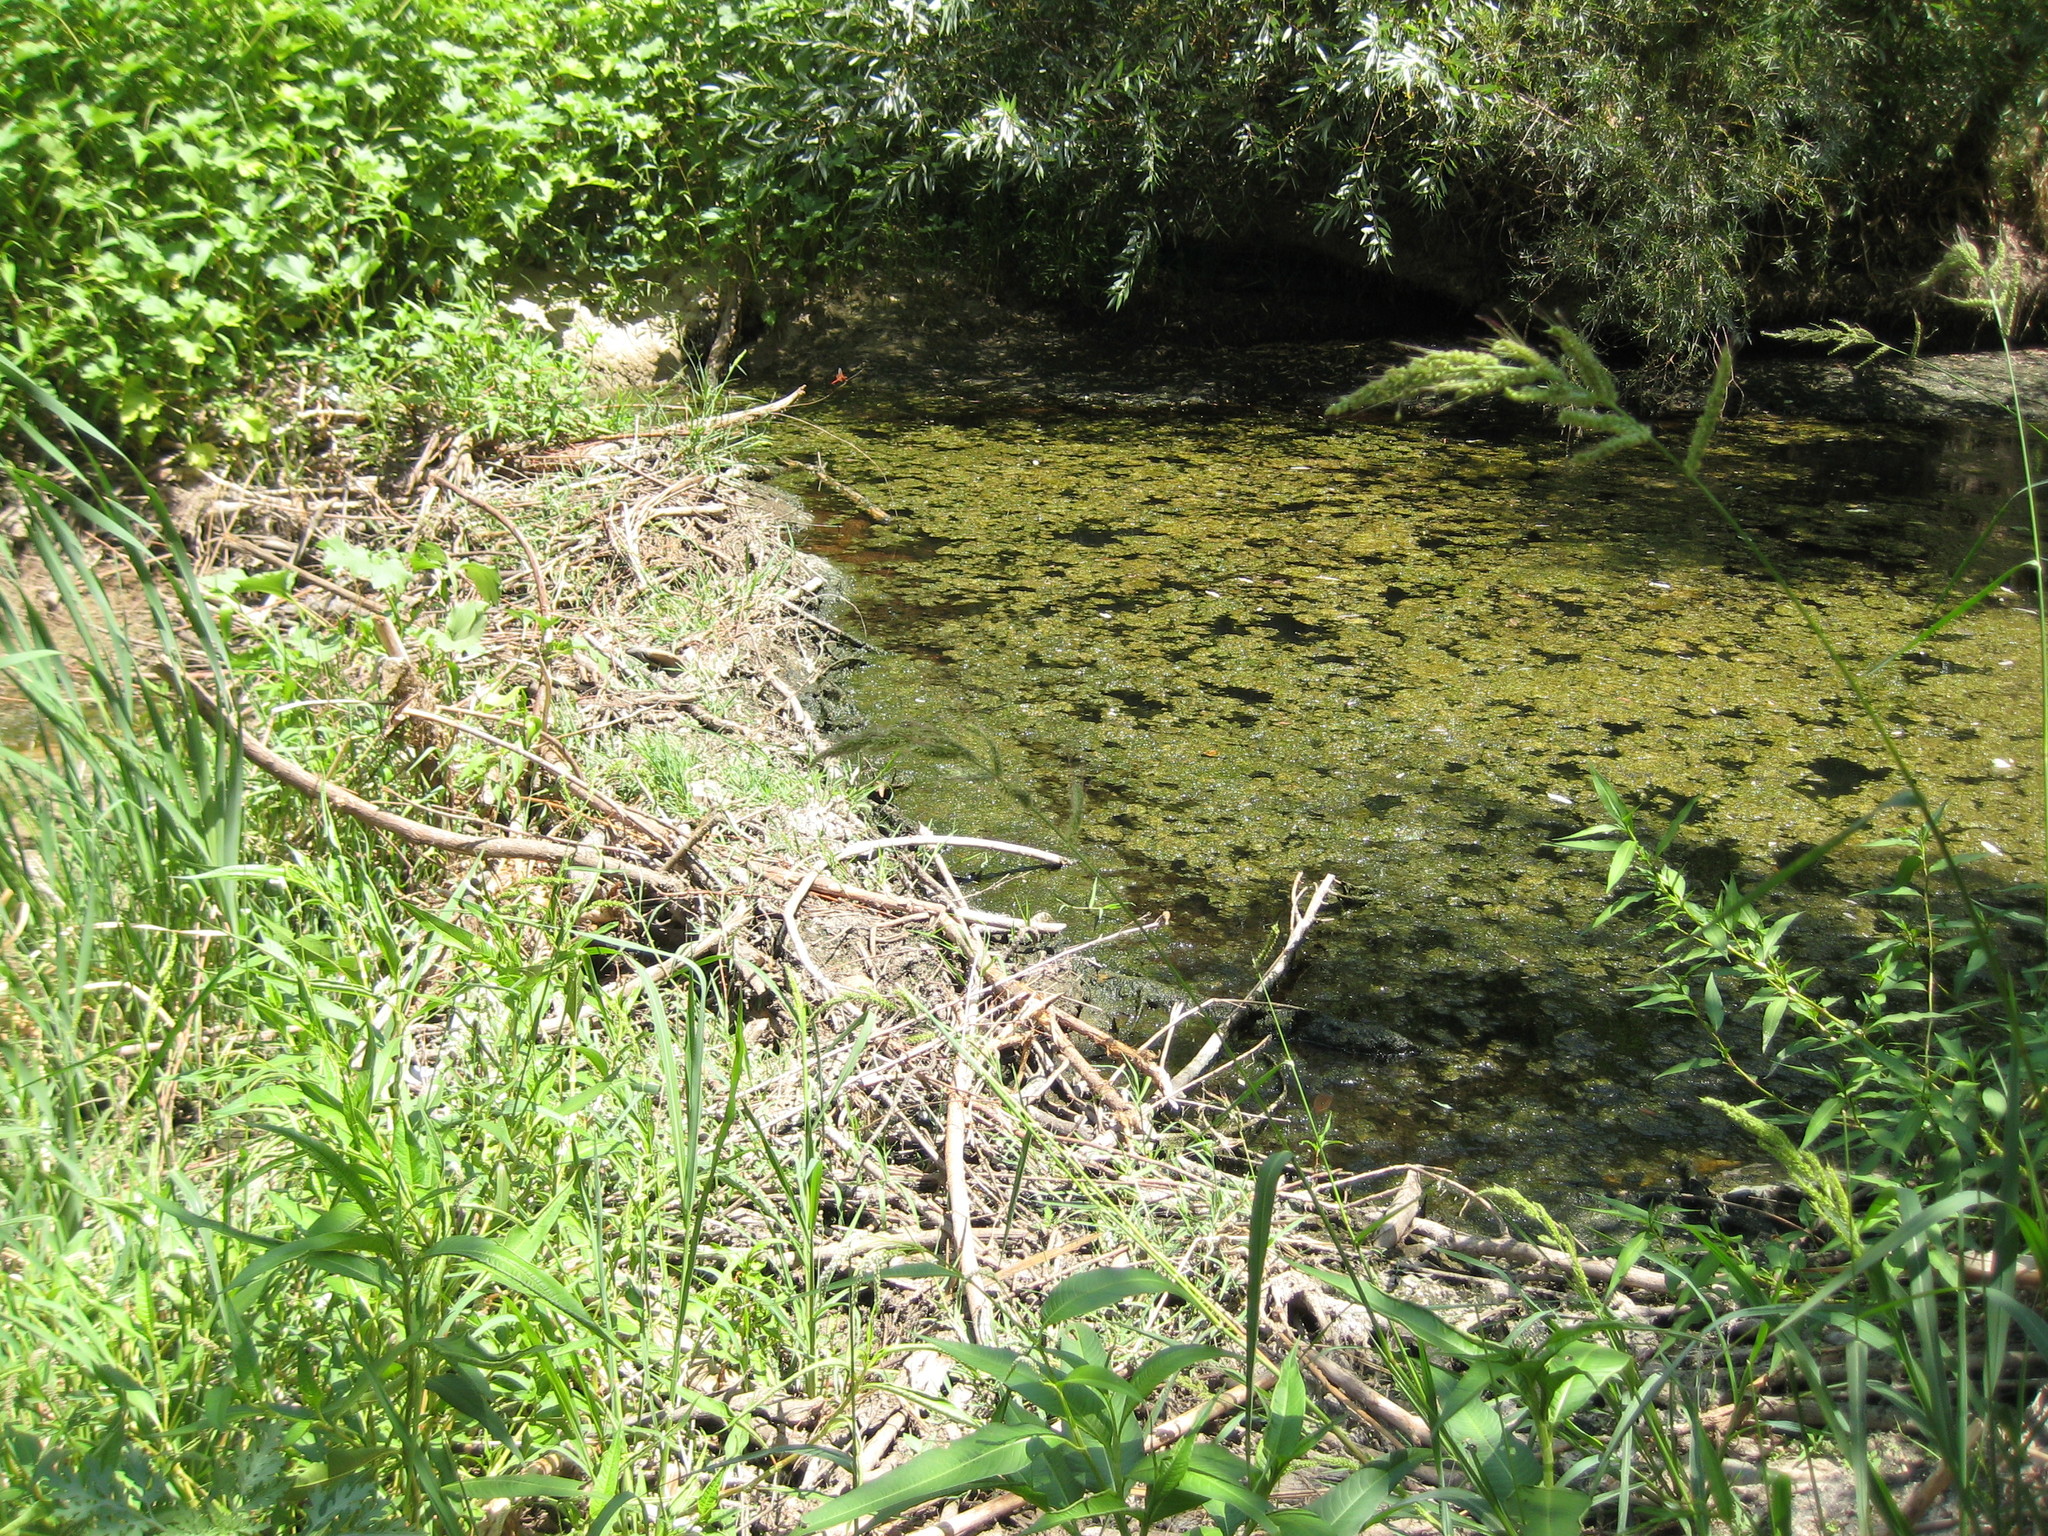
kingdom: Animalia
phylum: Chordata
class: Mammalia
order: Rodentia
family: Castoridae
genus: Castor
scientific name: Castor canadensis
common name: American beaver
